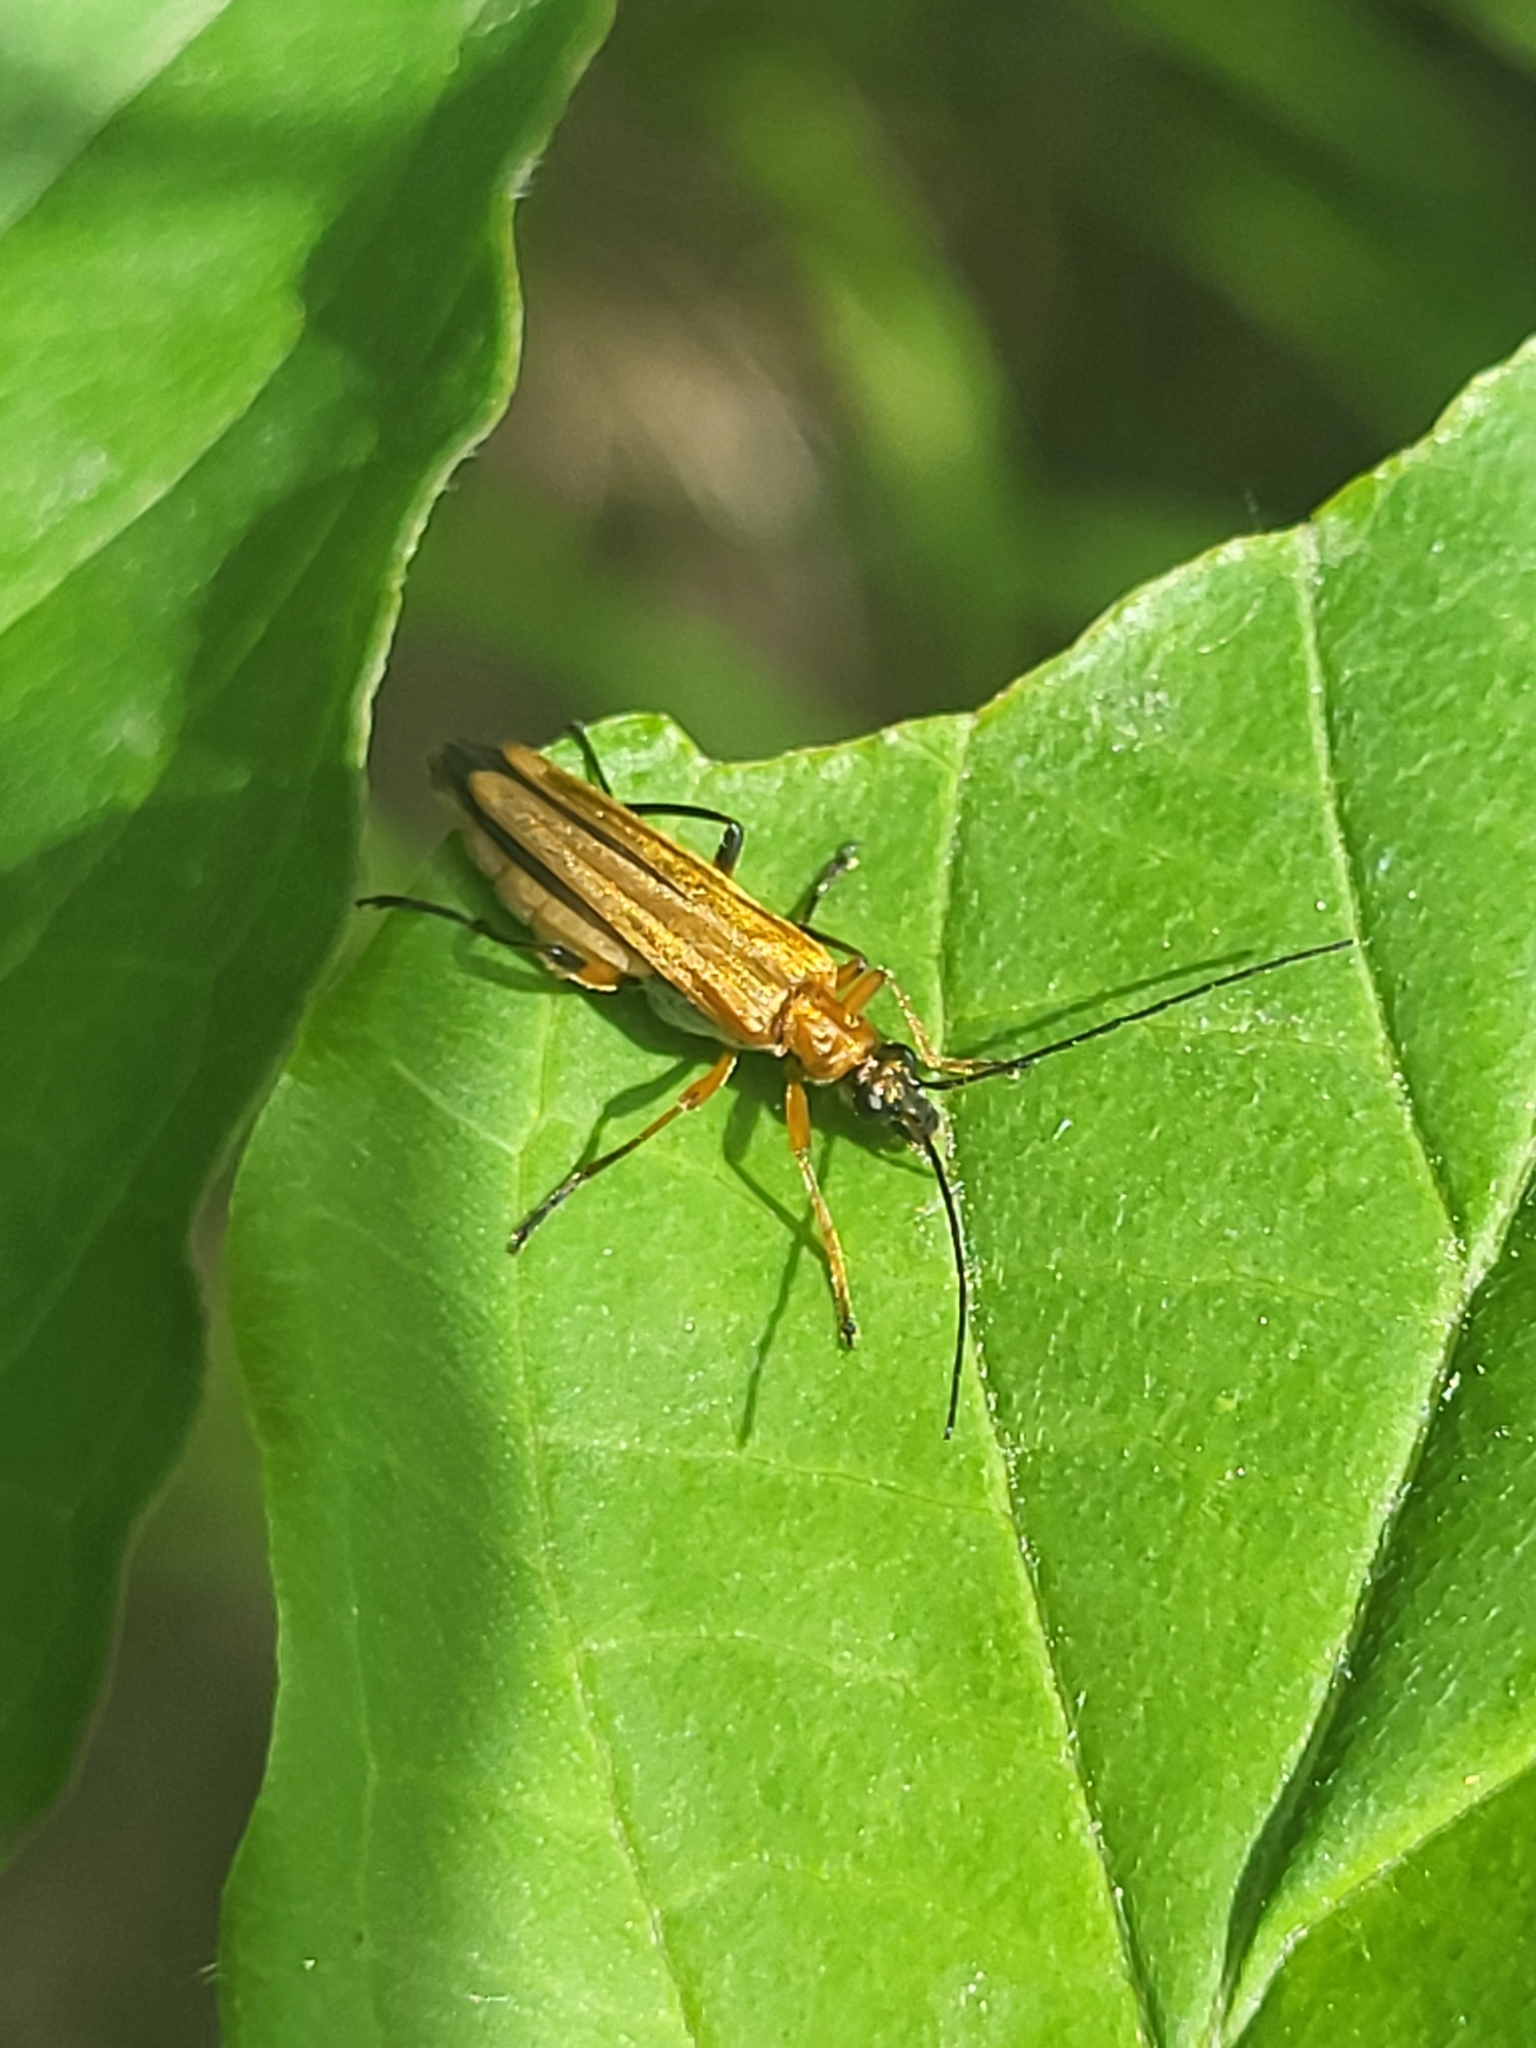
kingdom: Animalia
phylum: Arthropoda
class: Insecta
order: Coleoptera
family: Oedemeridae
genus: Oedemera
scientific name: Oedemera podagrariae
